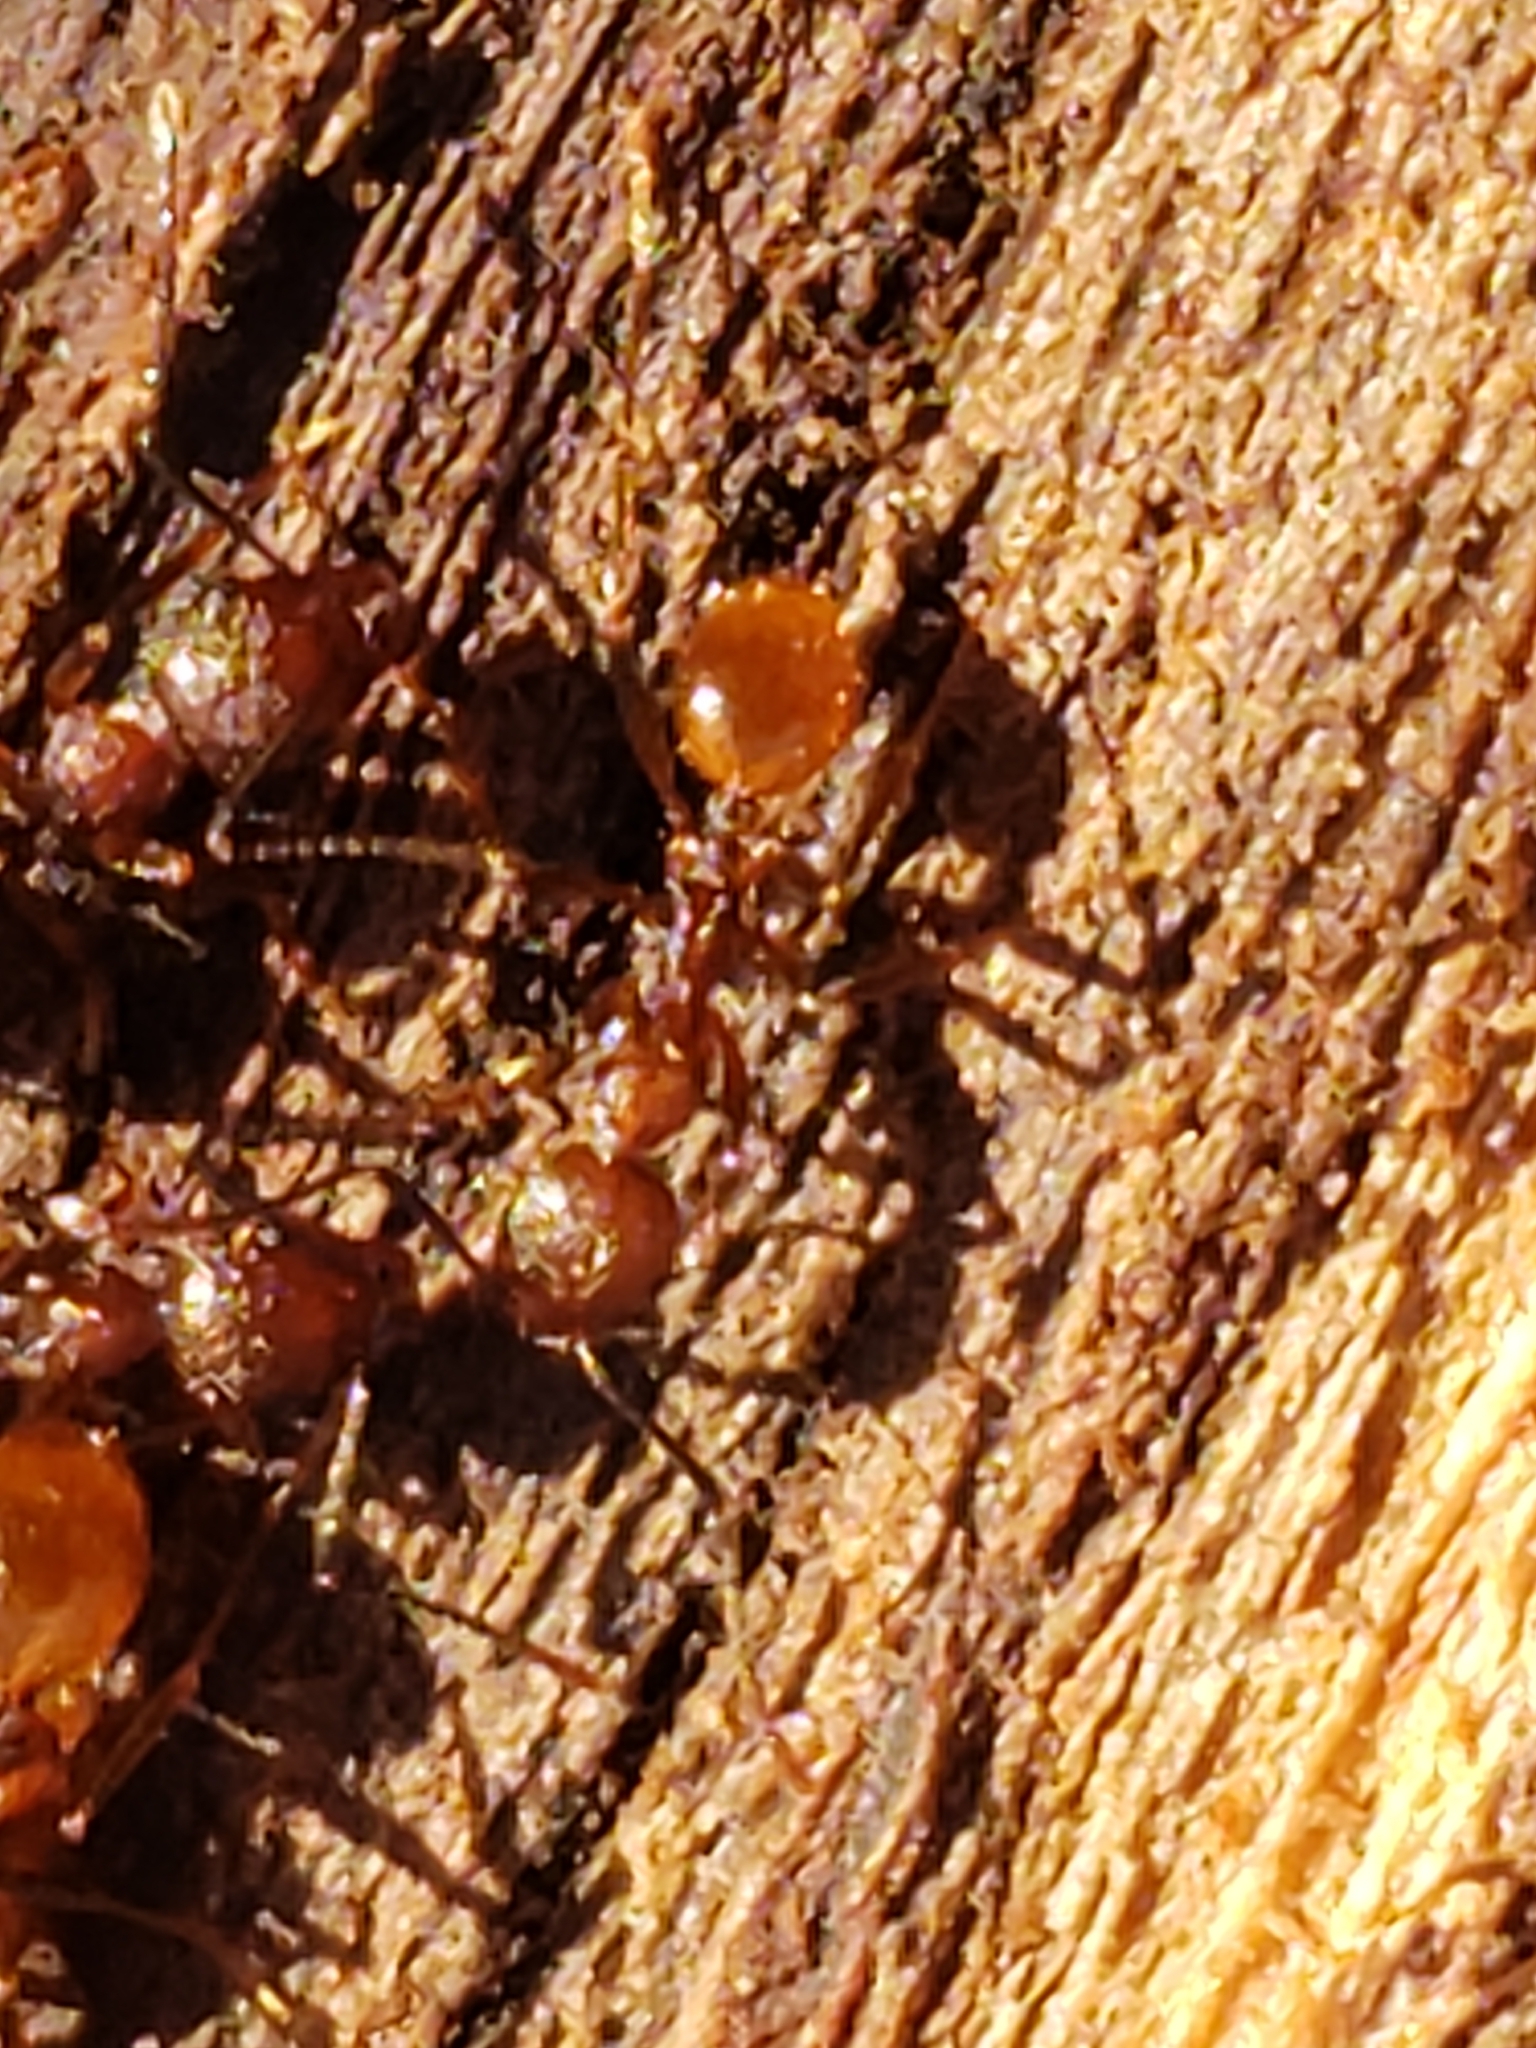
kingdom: Animalia
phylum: Arthropoda
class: Insecta
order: Hymenoptera
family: Formicidae
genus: Aphaenogaster
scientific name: Aphaenogaster fulva
